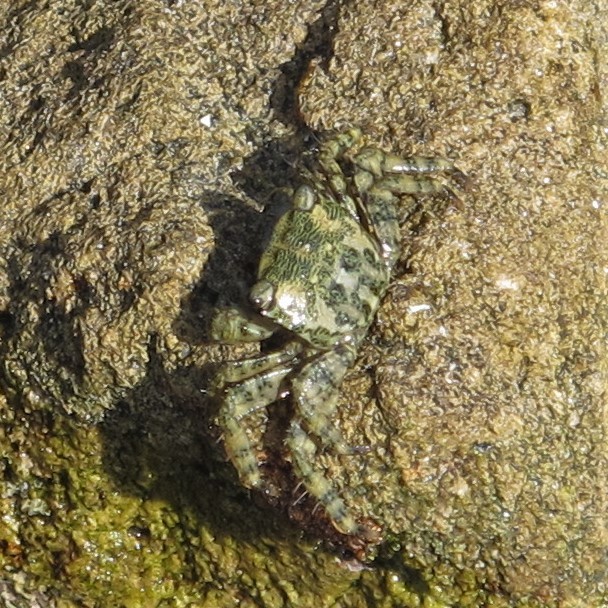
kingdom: Animalia
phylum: Arthropoda
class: Malacostraca
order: Decapoda
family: Grapsidae
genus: Pachygrapsus
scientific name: Pachygrapsus marmoratus
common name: Marbled rock crab
